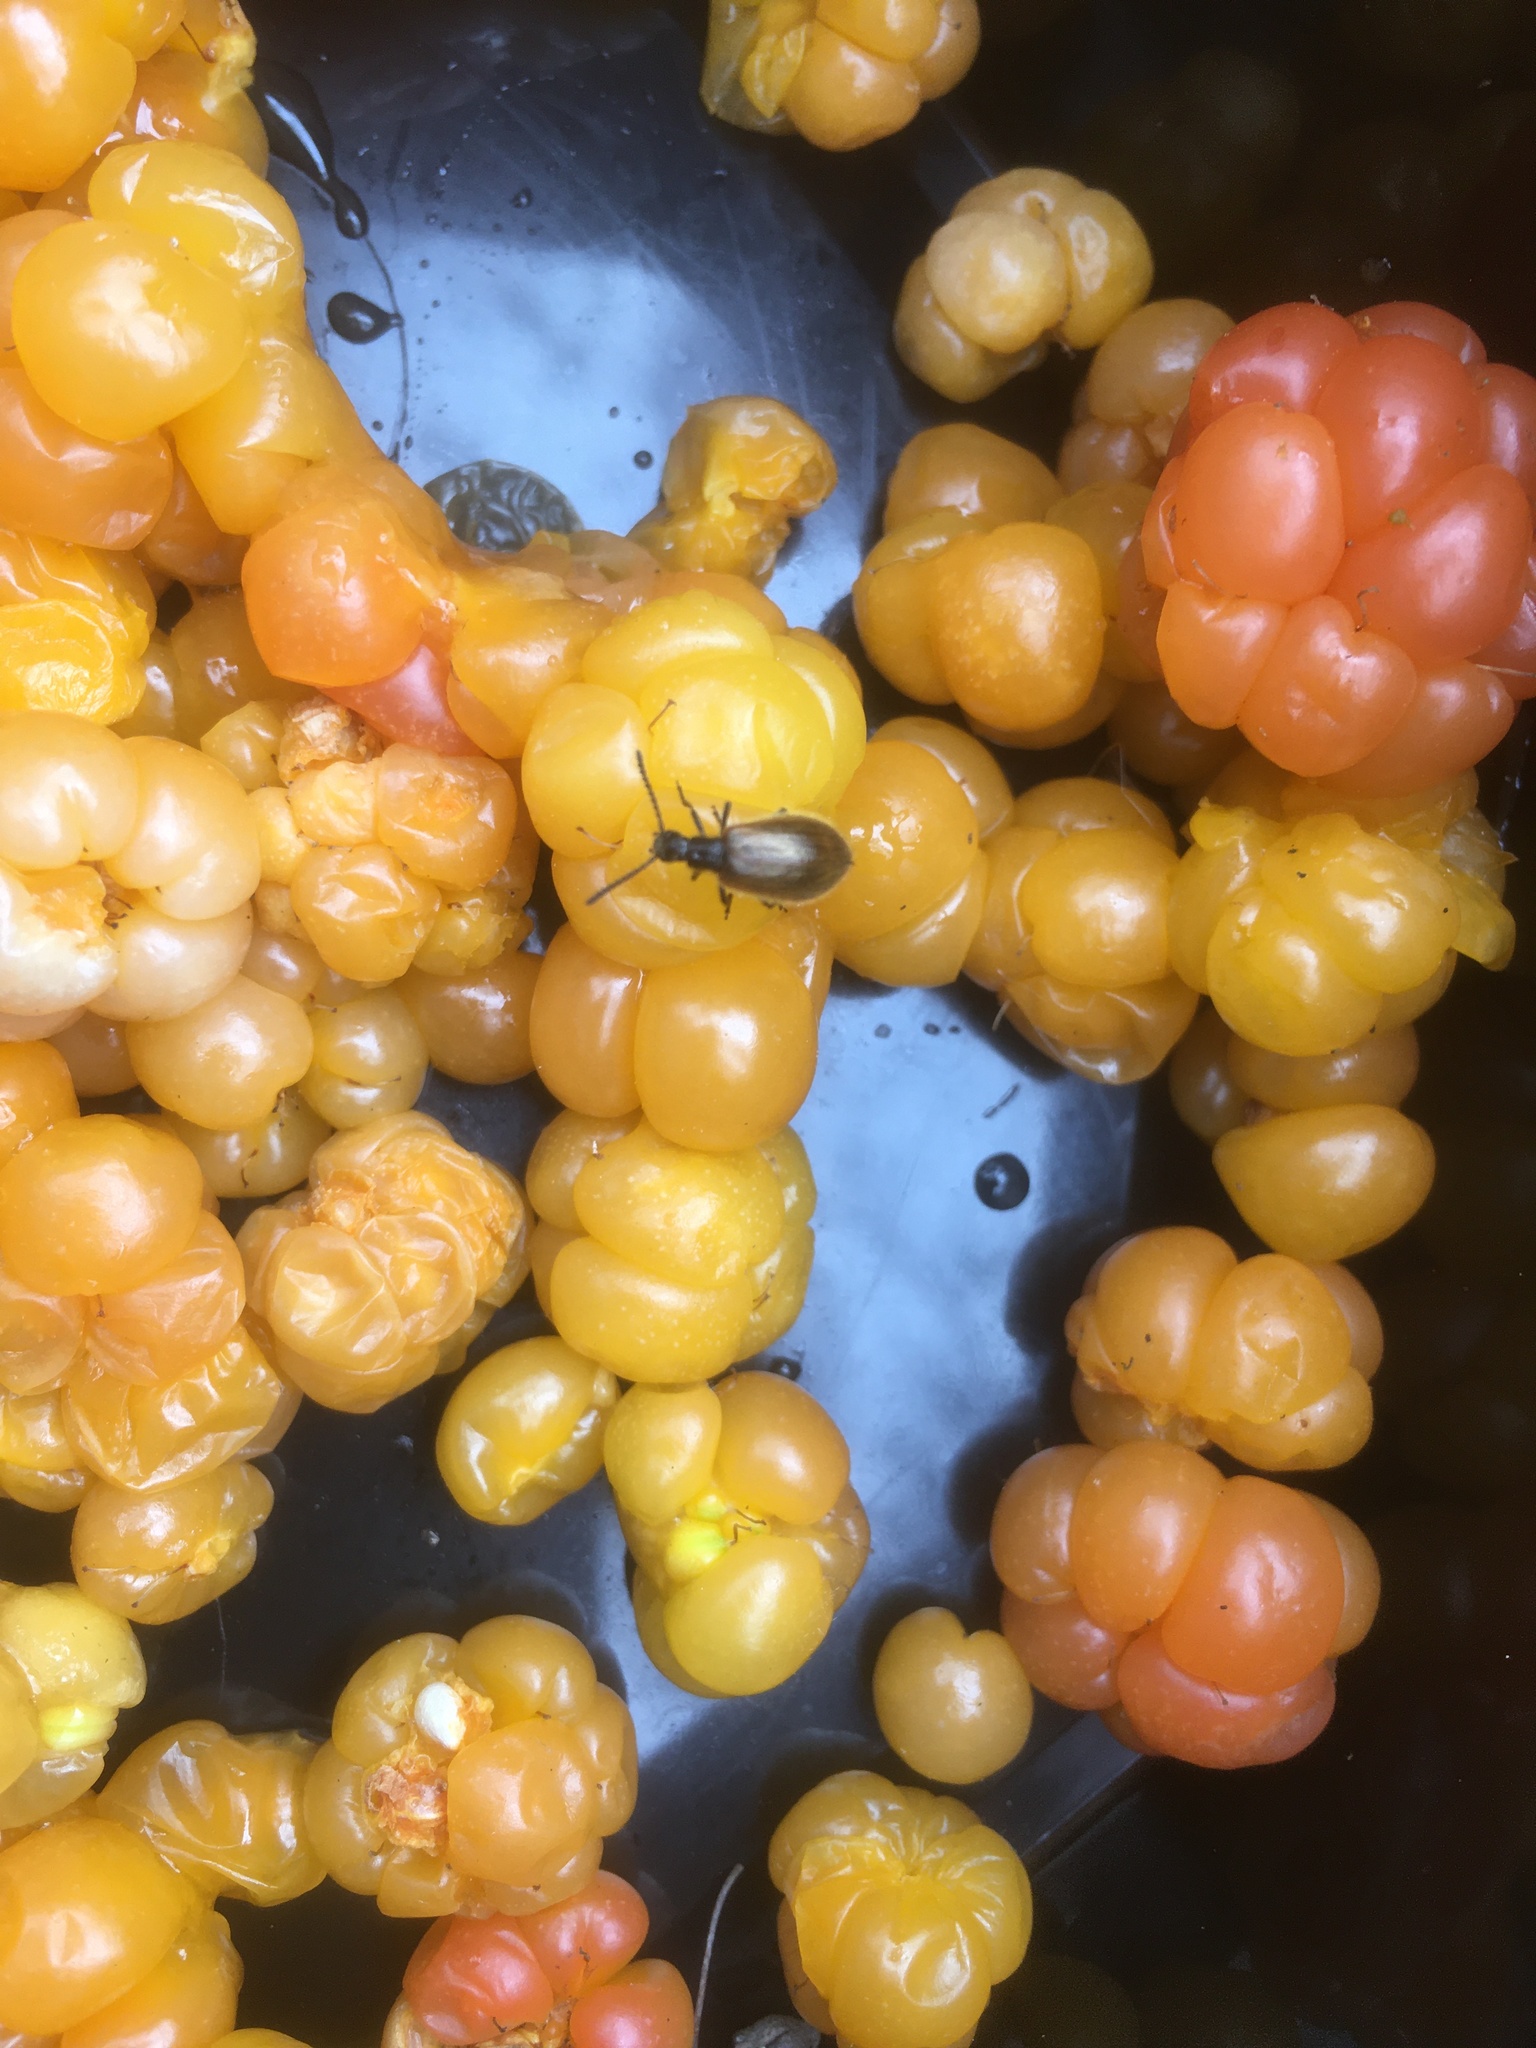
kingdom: Animalia
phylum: Arthropoda
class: Insecta
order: Coleoptera
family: Tenebrionidae
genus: Lagria
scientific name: Lagria hirta
